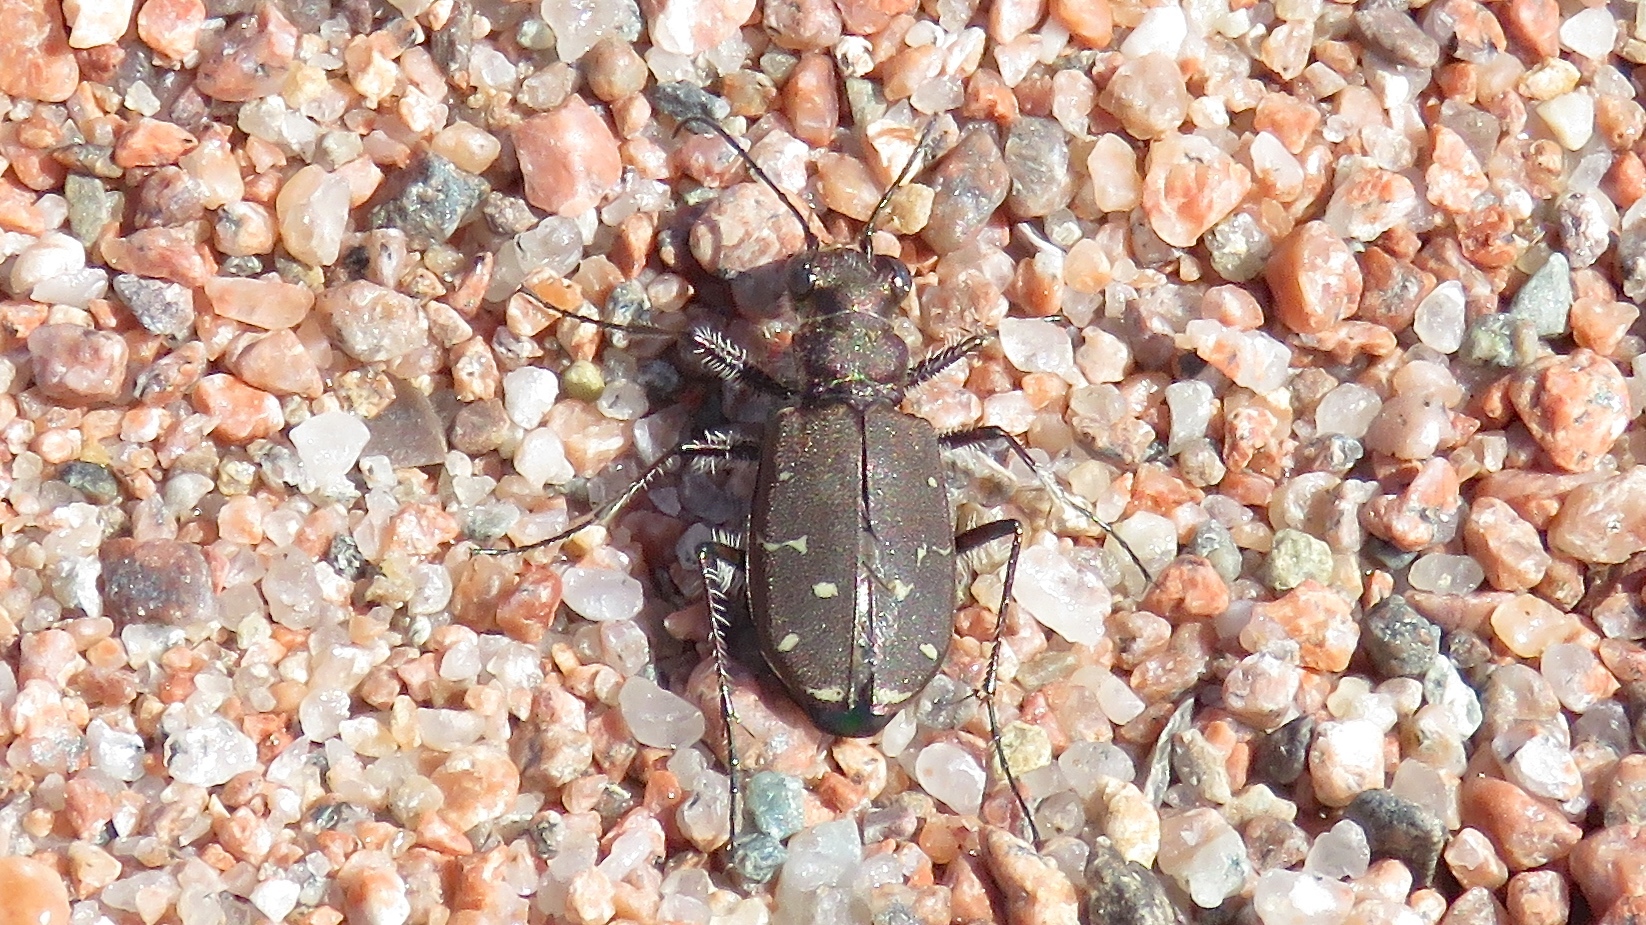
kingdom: Animalia
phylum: Arthropoda
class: Insecta
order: Coleoptera
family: Carabidae
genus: Cicindela
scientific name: Cicindela duodecimguttata
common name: Twelve-spotted tiger beetle
